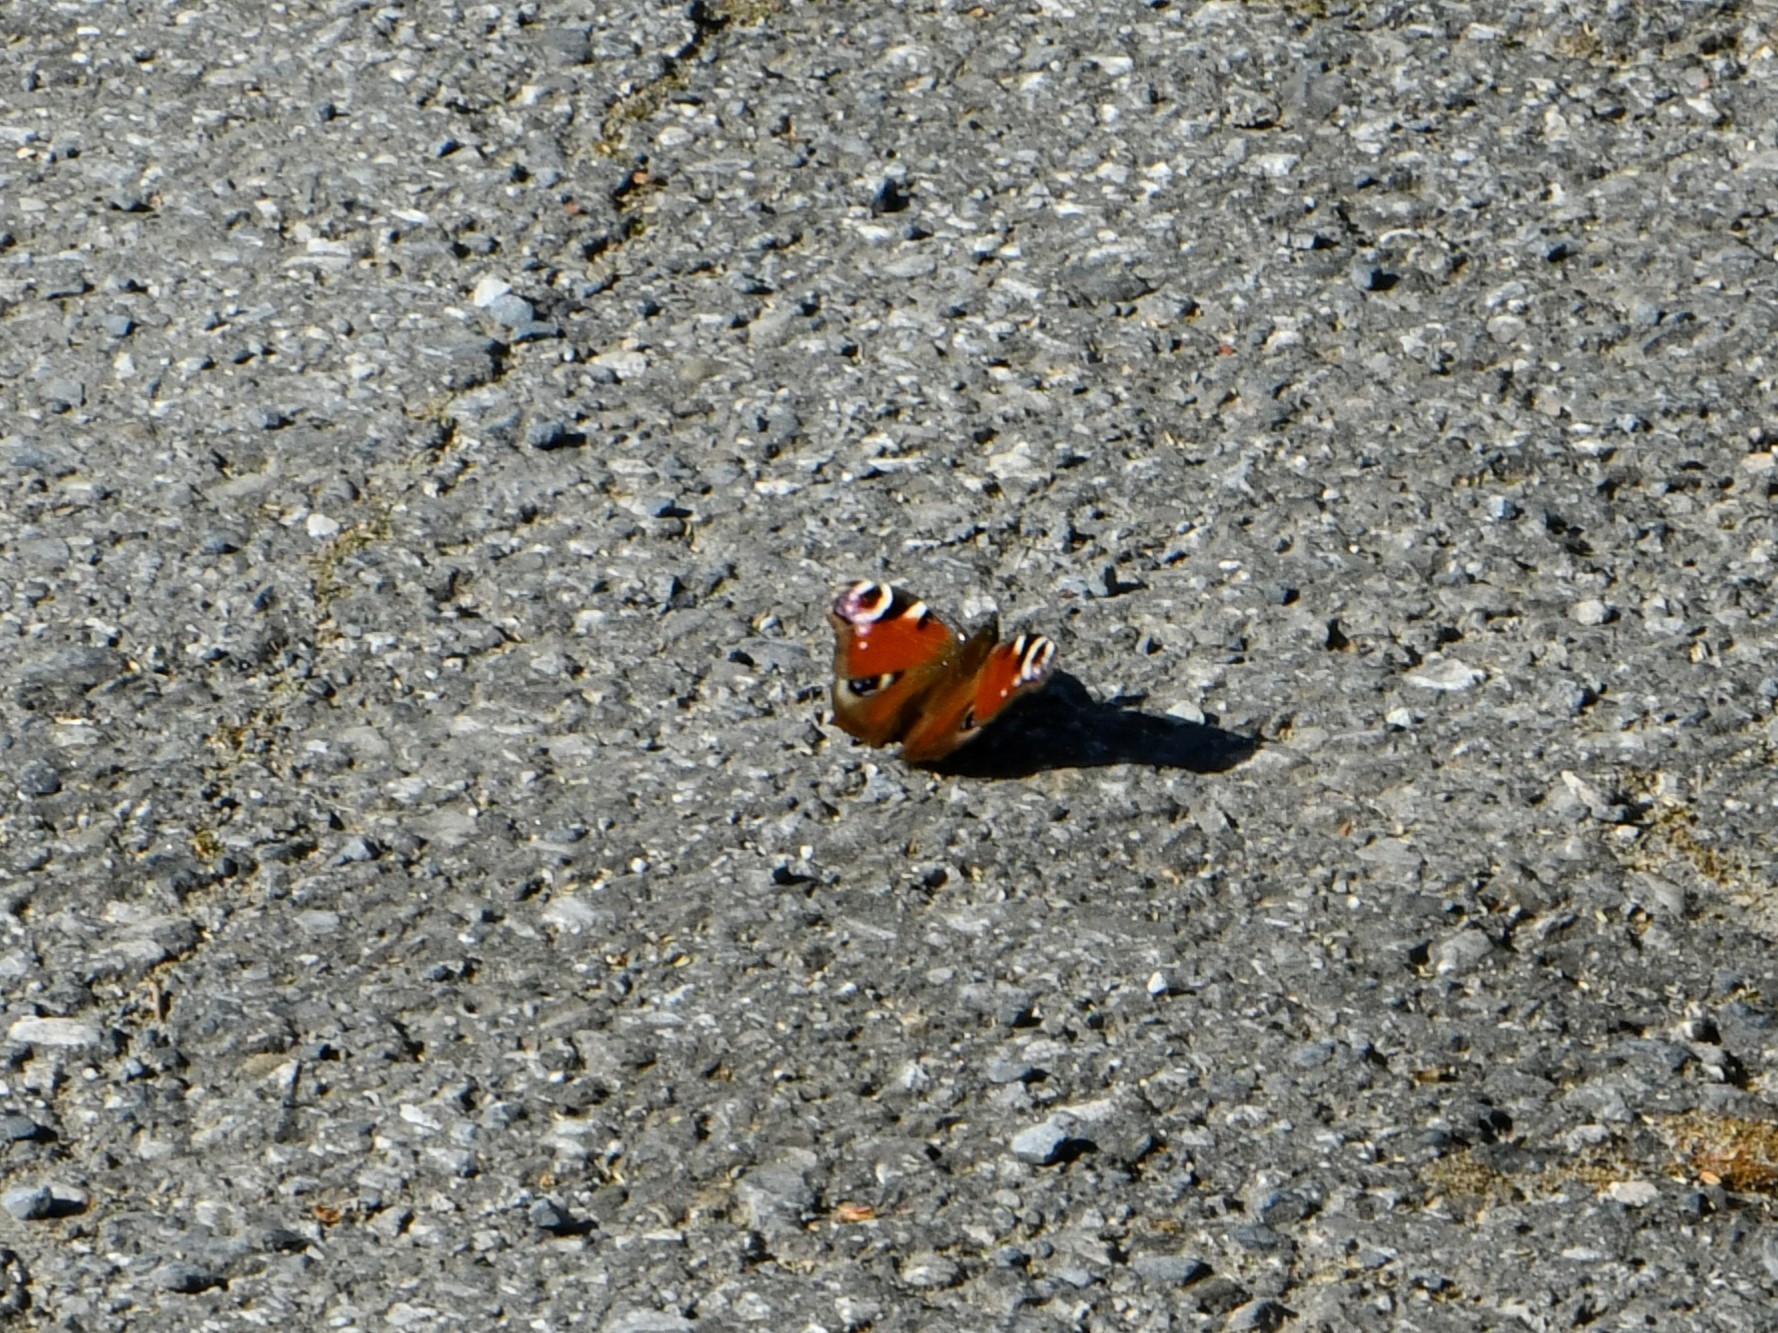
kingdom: Animalia
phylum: Arthropoda
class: Insecta
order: Lepidoptera
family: Nymphalidae
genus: Aglais
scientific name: Aglais io
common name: Peacock
